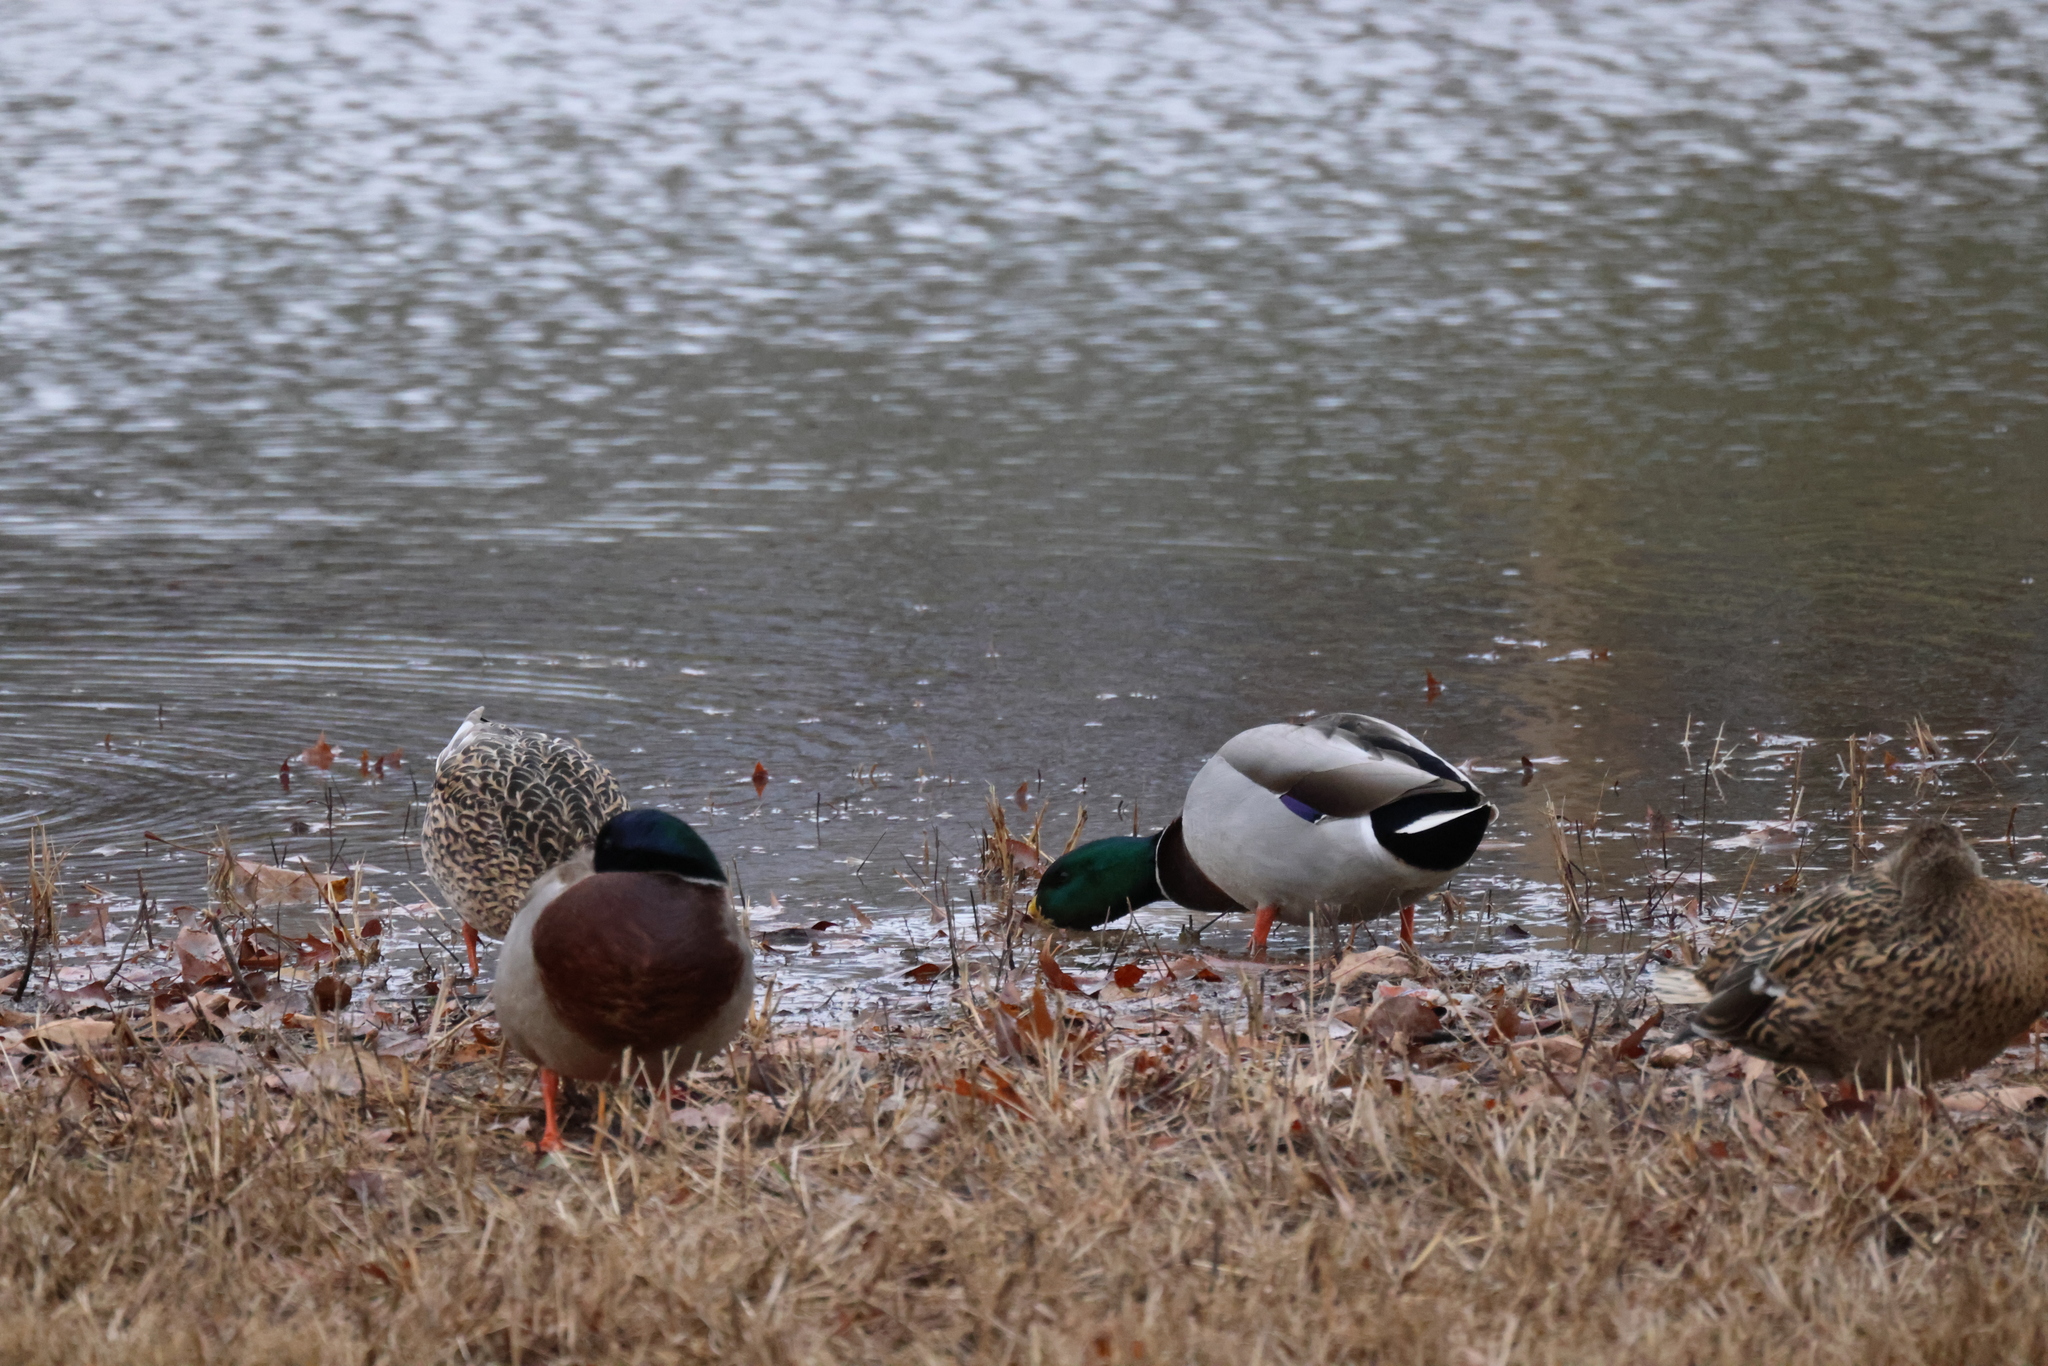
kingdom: Animalia
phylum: Chordata
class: Aves
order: Anseriformes
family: Anatidae
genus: Anas
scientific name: Anas platyrhynchos
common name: Mallard
